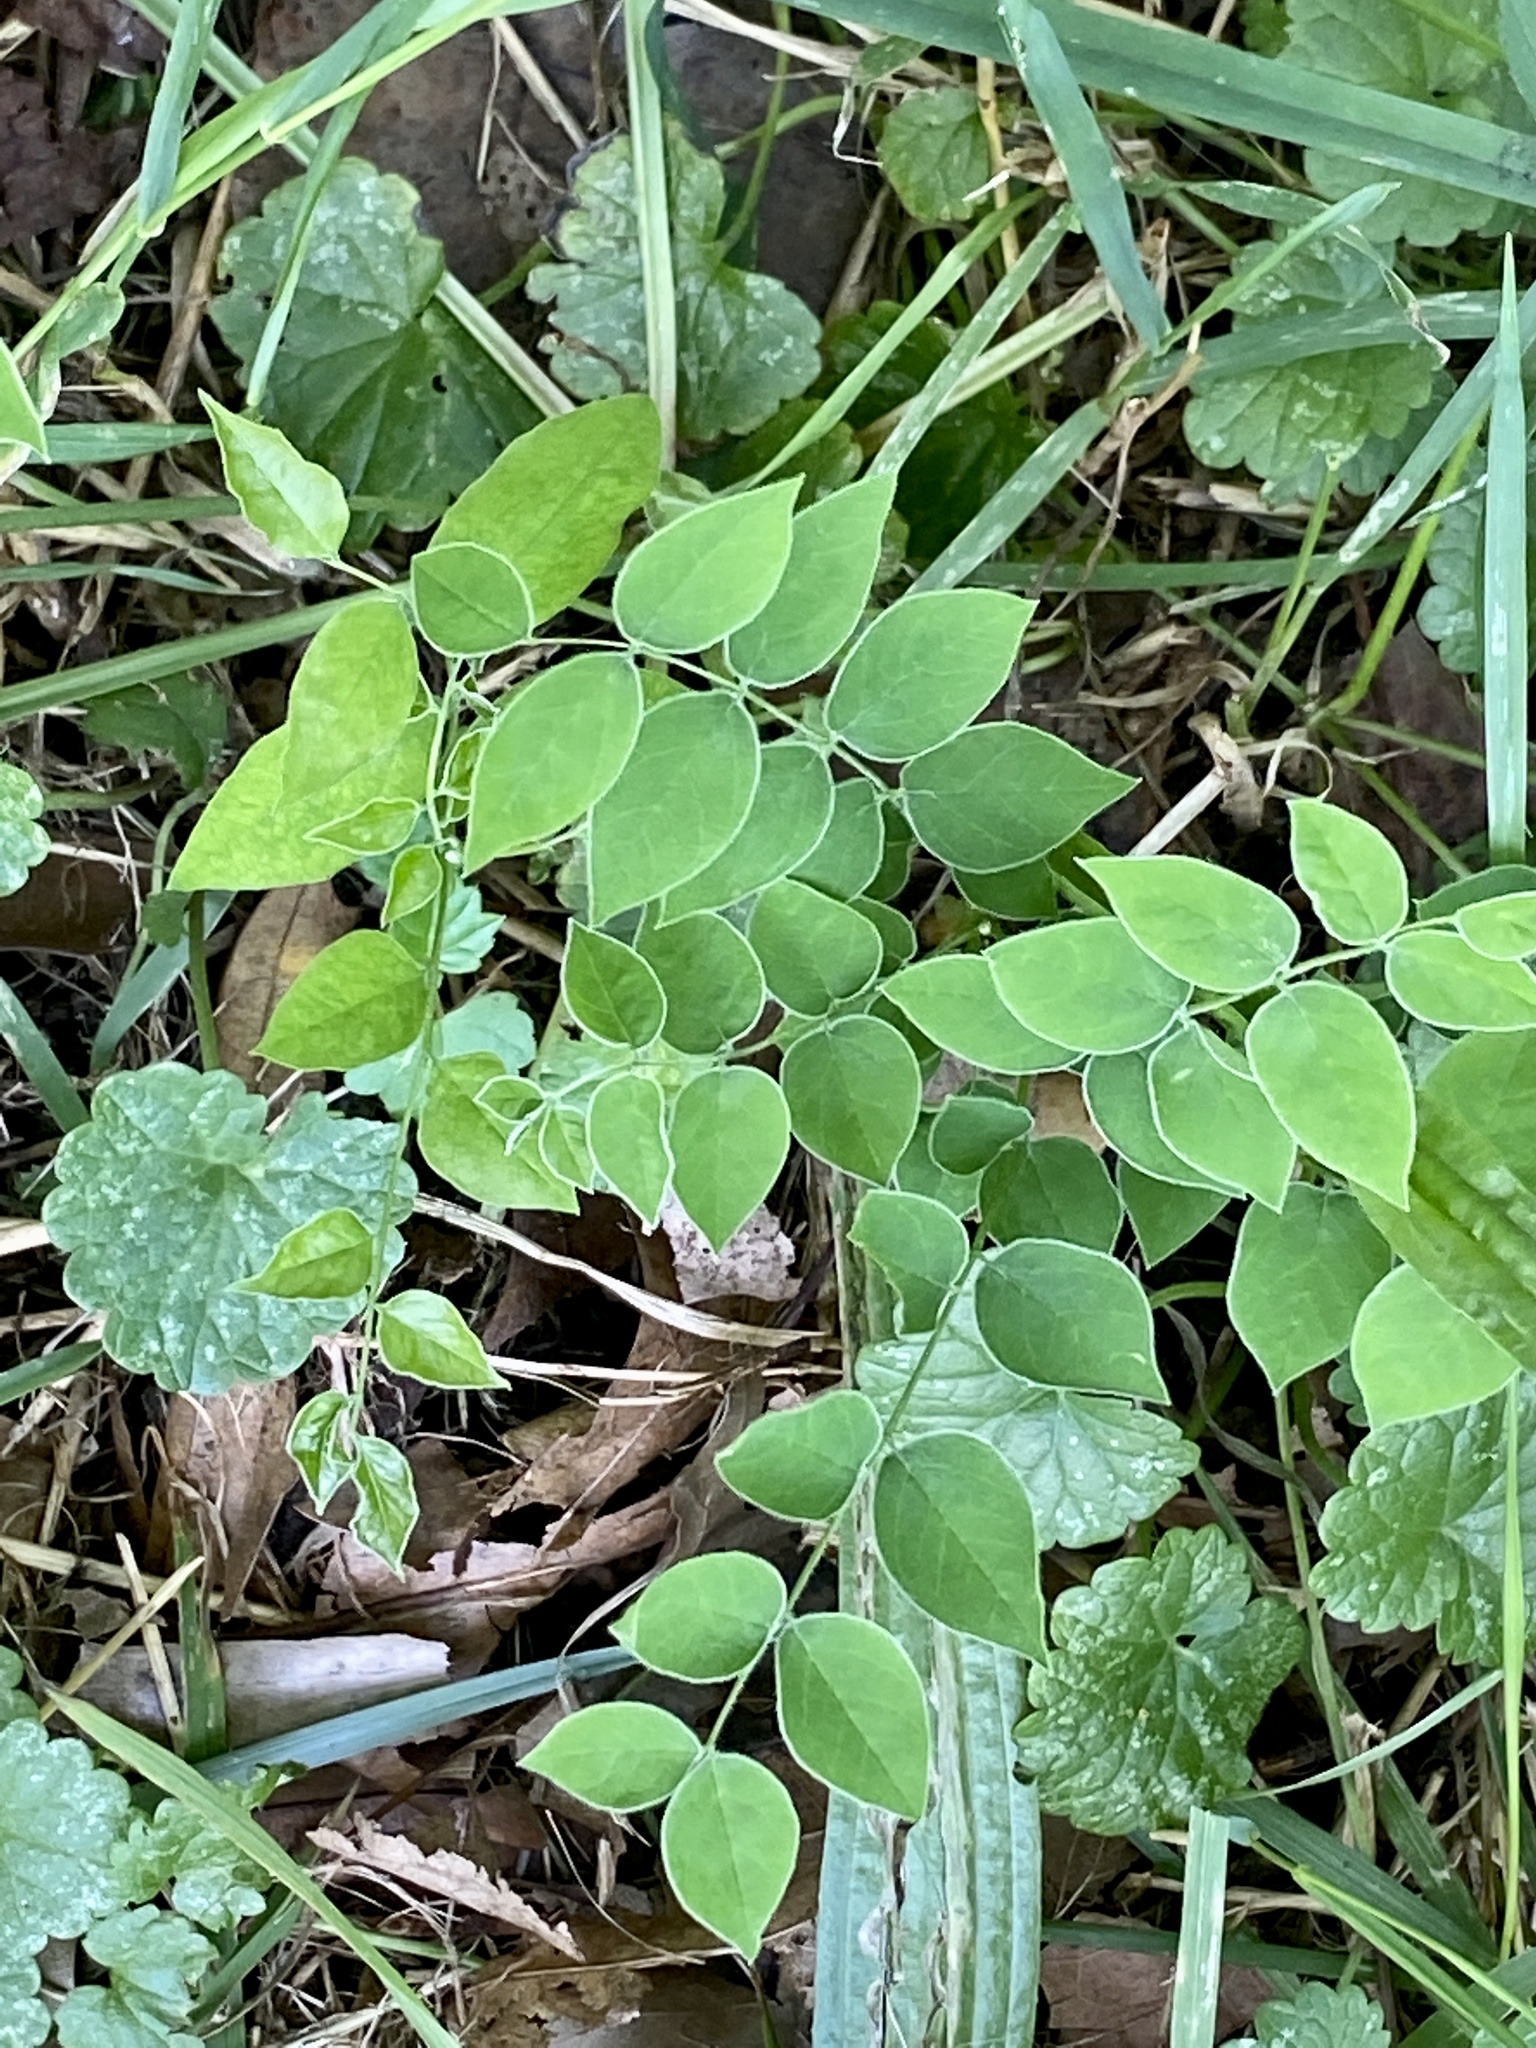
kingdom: Plantae
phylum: Tracheophyta
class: Magnoliopsida
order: Fabales
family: Fabaceae
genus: Gymnocladus
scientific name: Gymnocladus dioicus
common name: Kentucky coffee-tree
